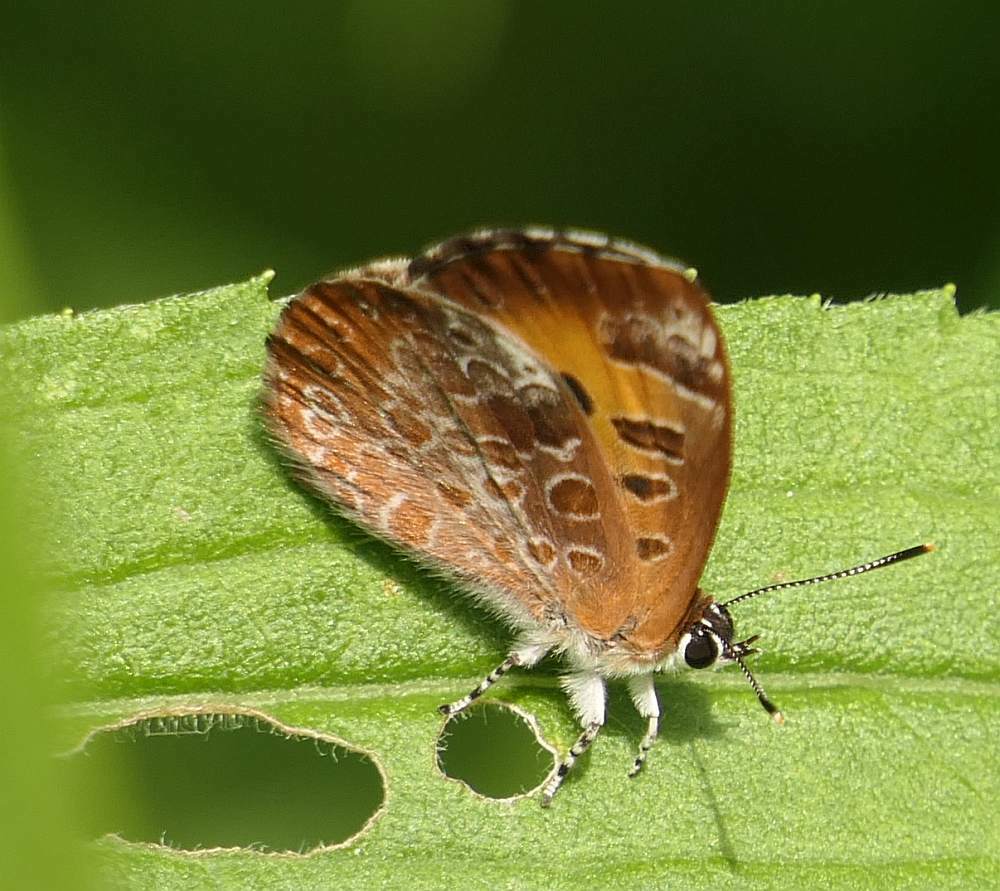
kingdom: Animalia
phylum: Arthropoda
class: Insecta
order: Lepidoptera
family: Lycaenidae
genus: Feniseca
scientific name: Feniseca tarquinius
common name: Harvester
